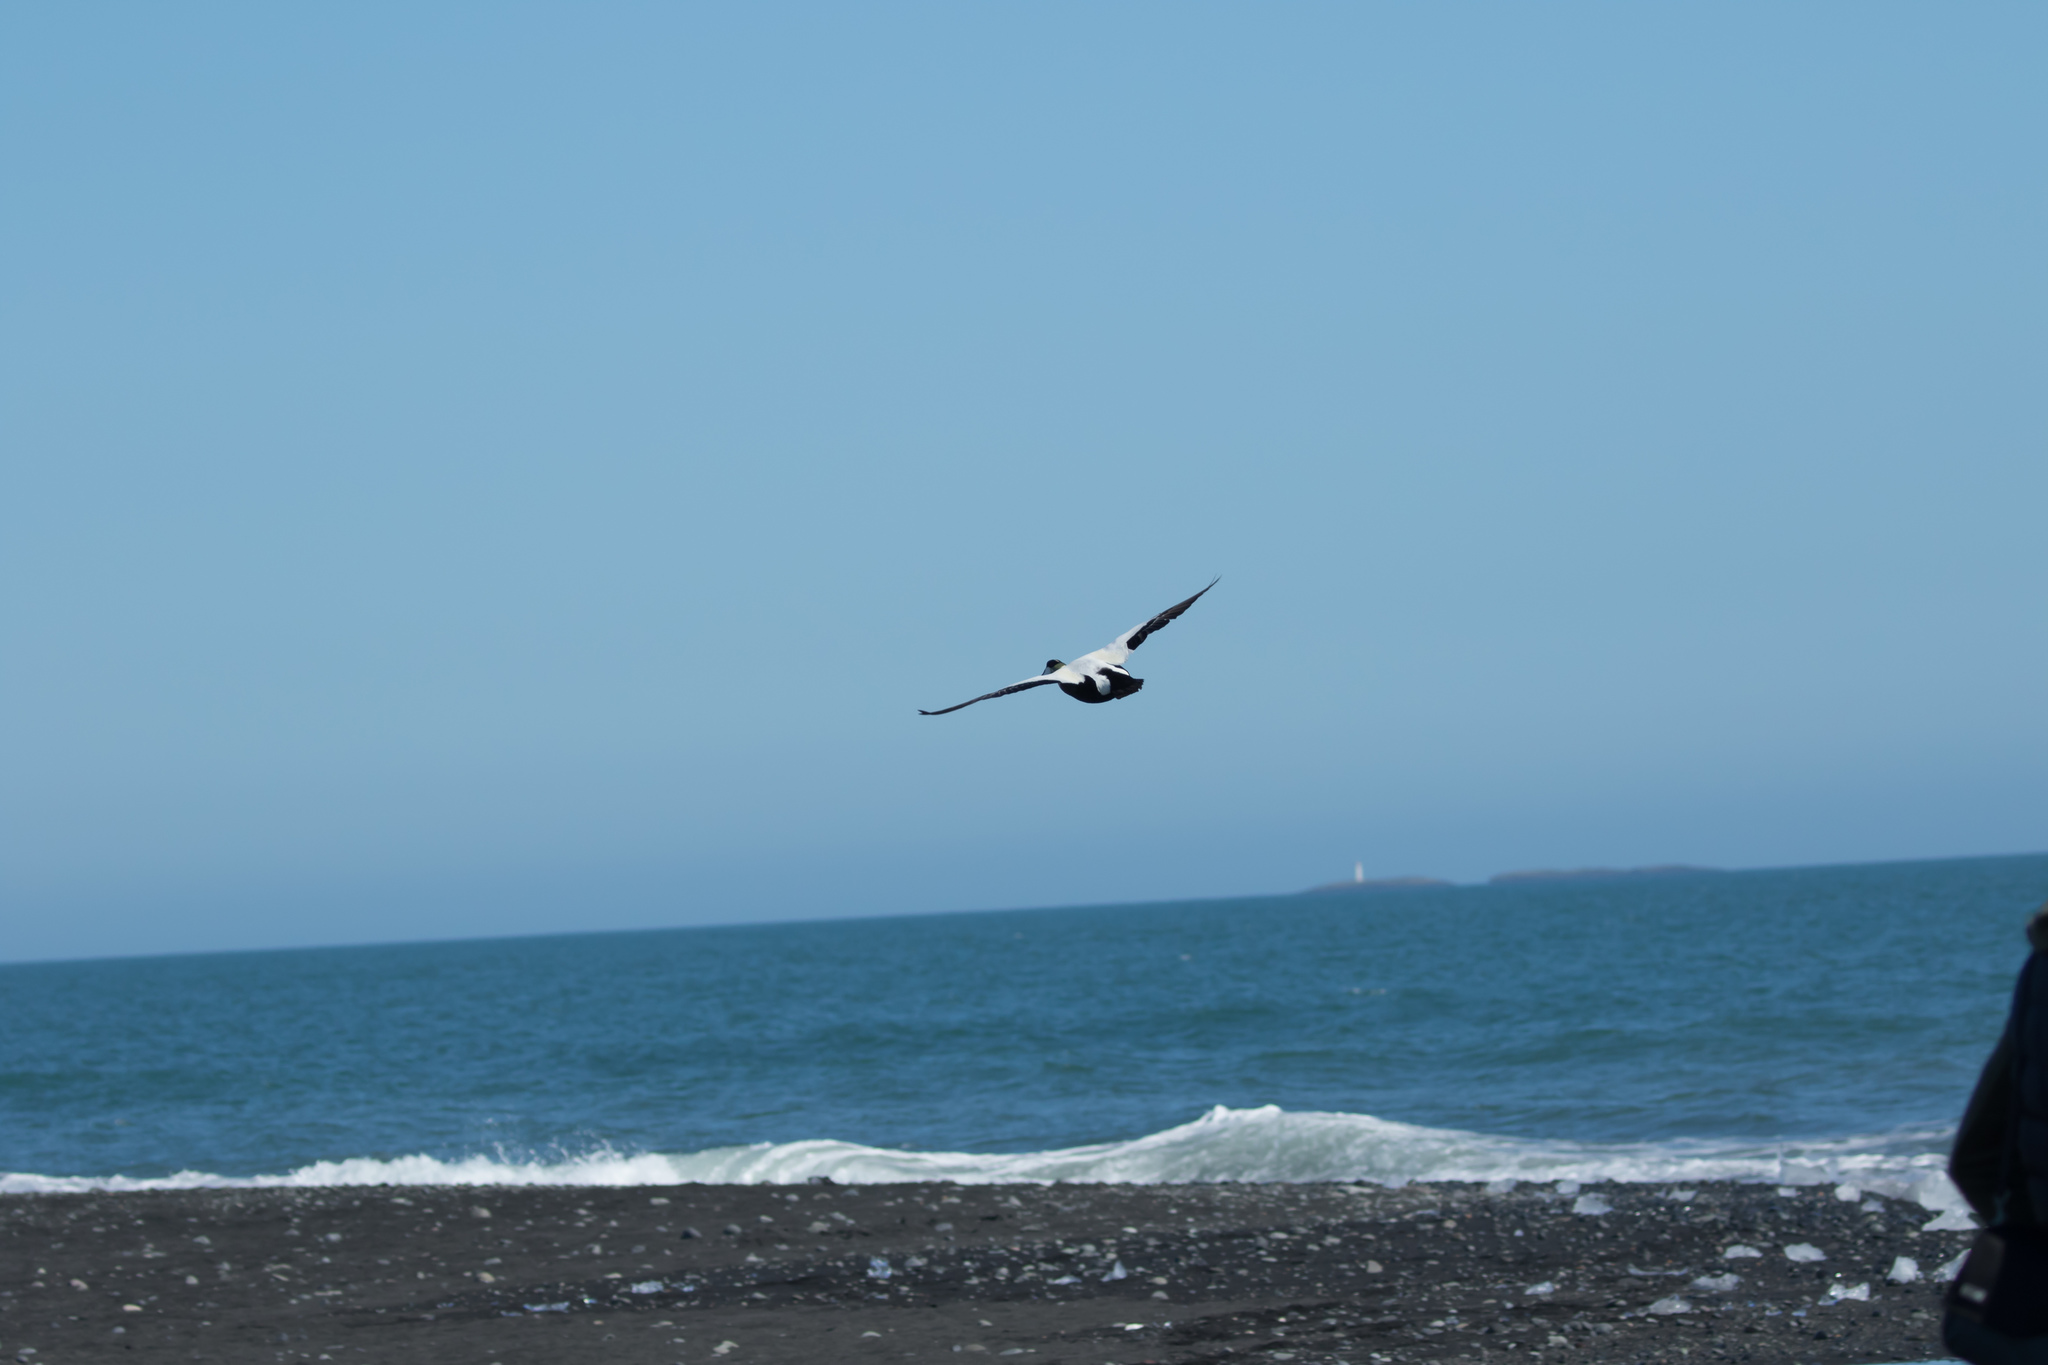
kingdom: Animalia
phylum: Chordata
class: Aves
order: Anseriformes
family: Anatidae
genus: Somateria
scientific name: Somateria mollissima
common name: Common eider
